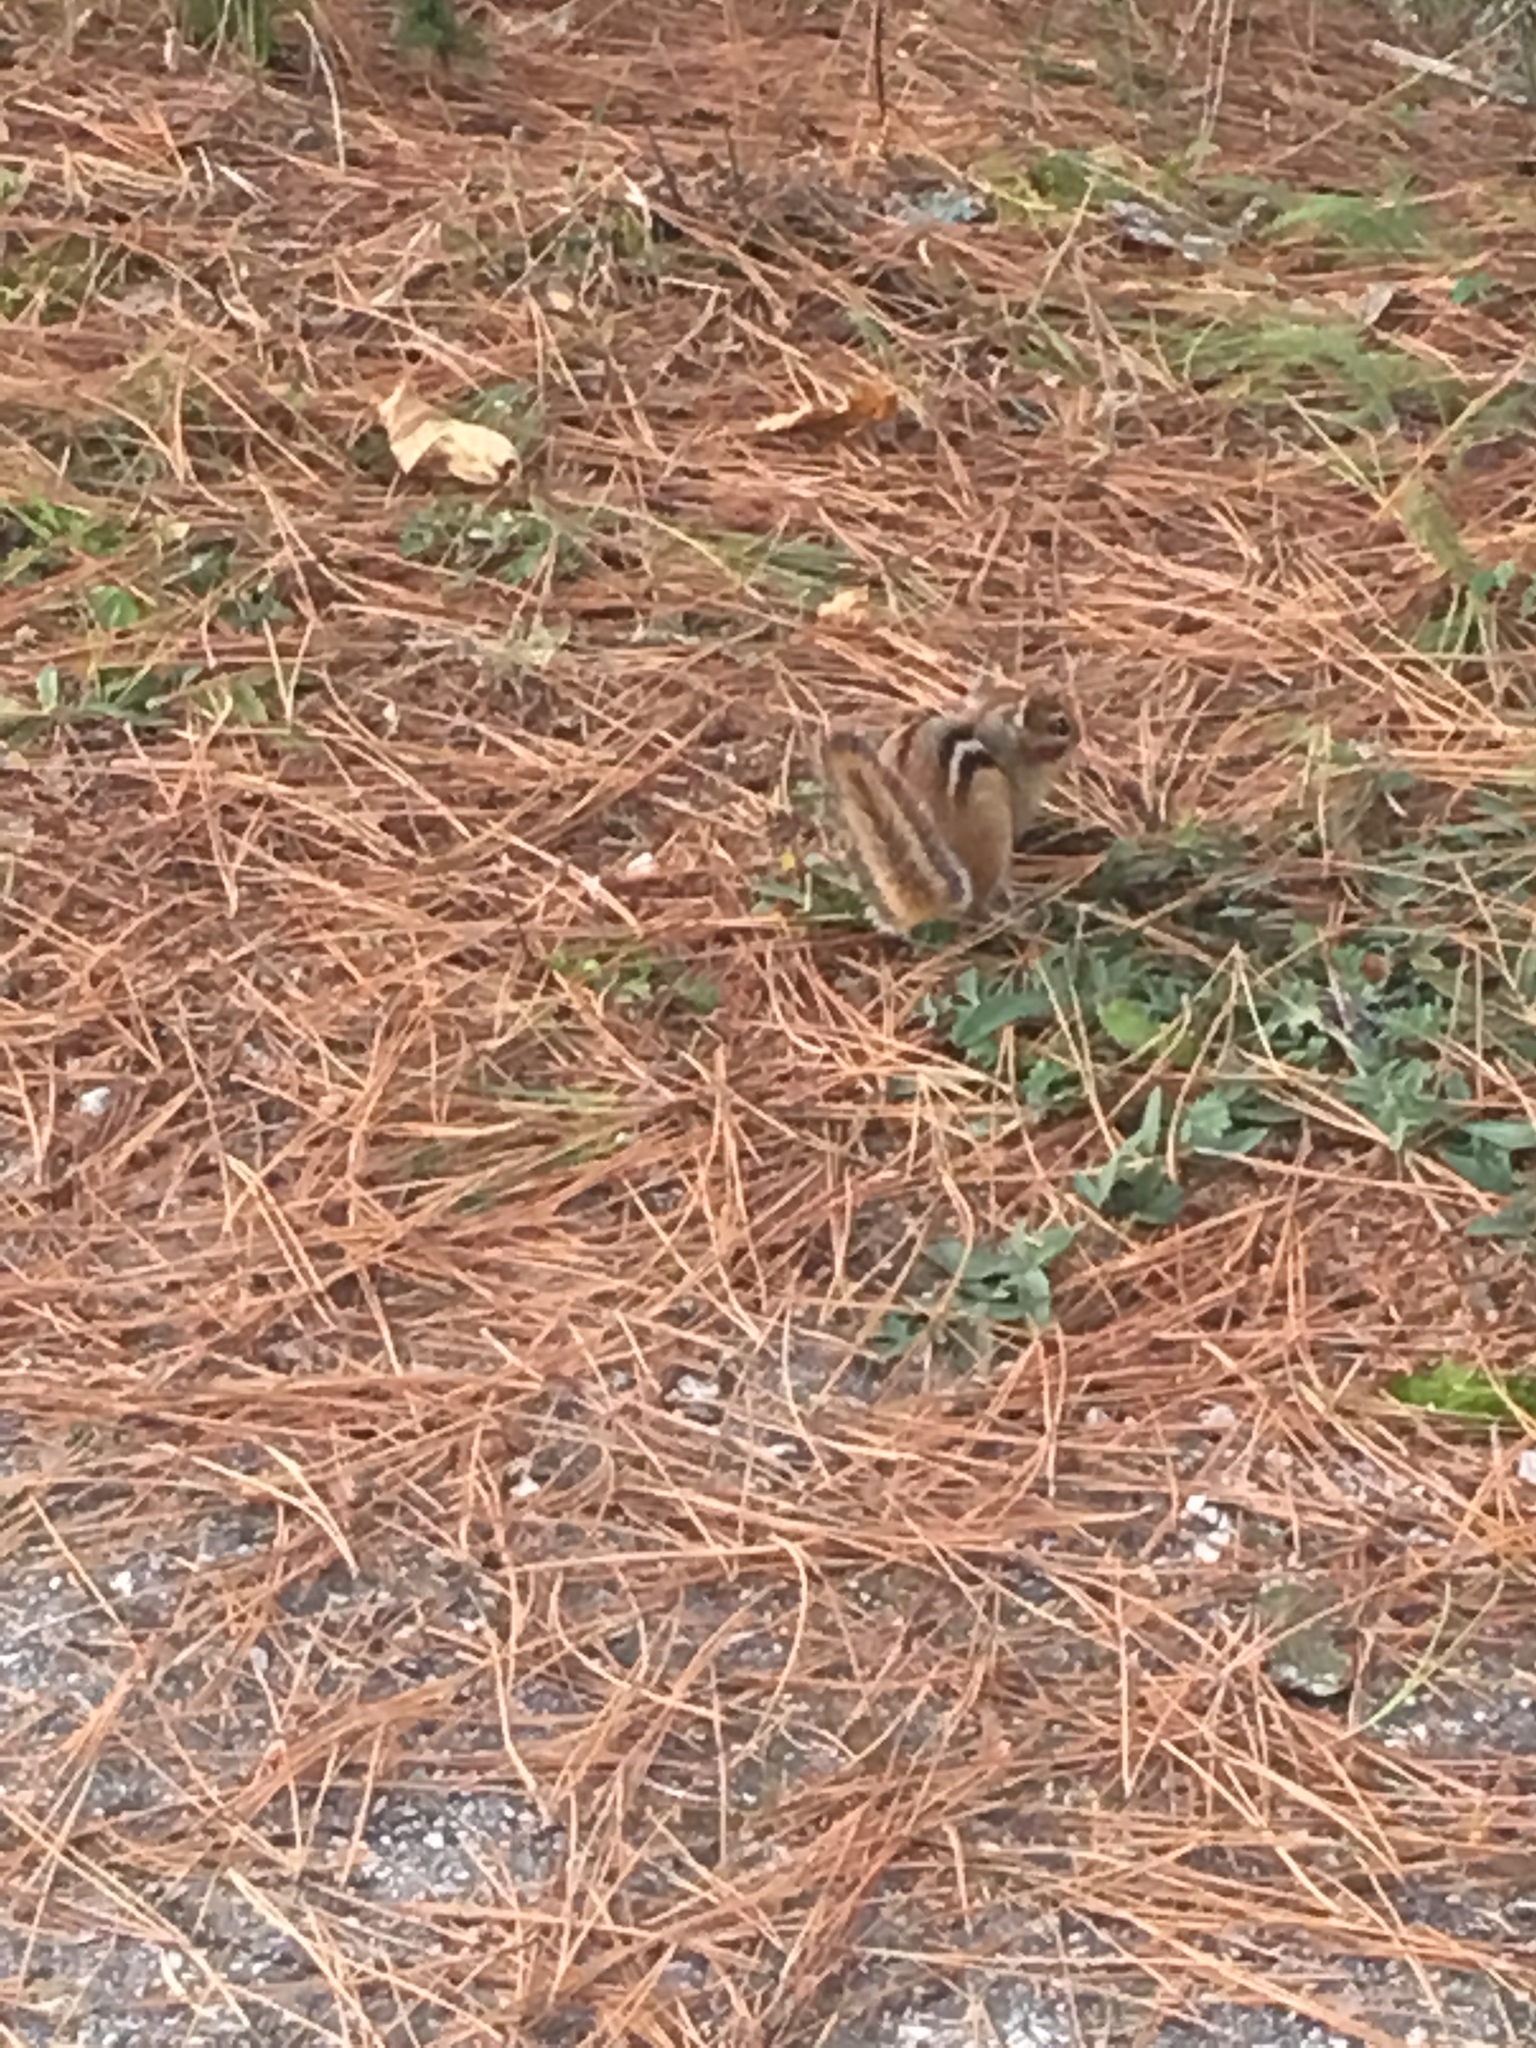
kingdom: Animalia
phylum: Chordata
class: Mammalia
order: Rodentia
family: Sciuridae
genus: Tamias
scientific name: Tamias striatus
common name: Eastern chipmunk
